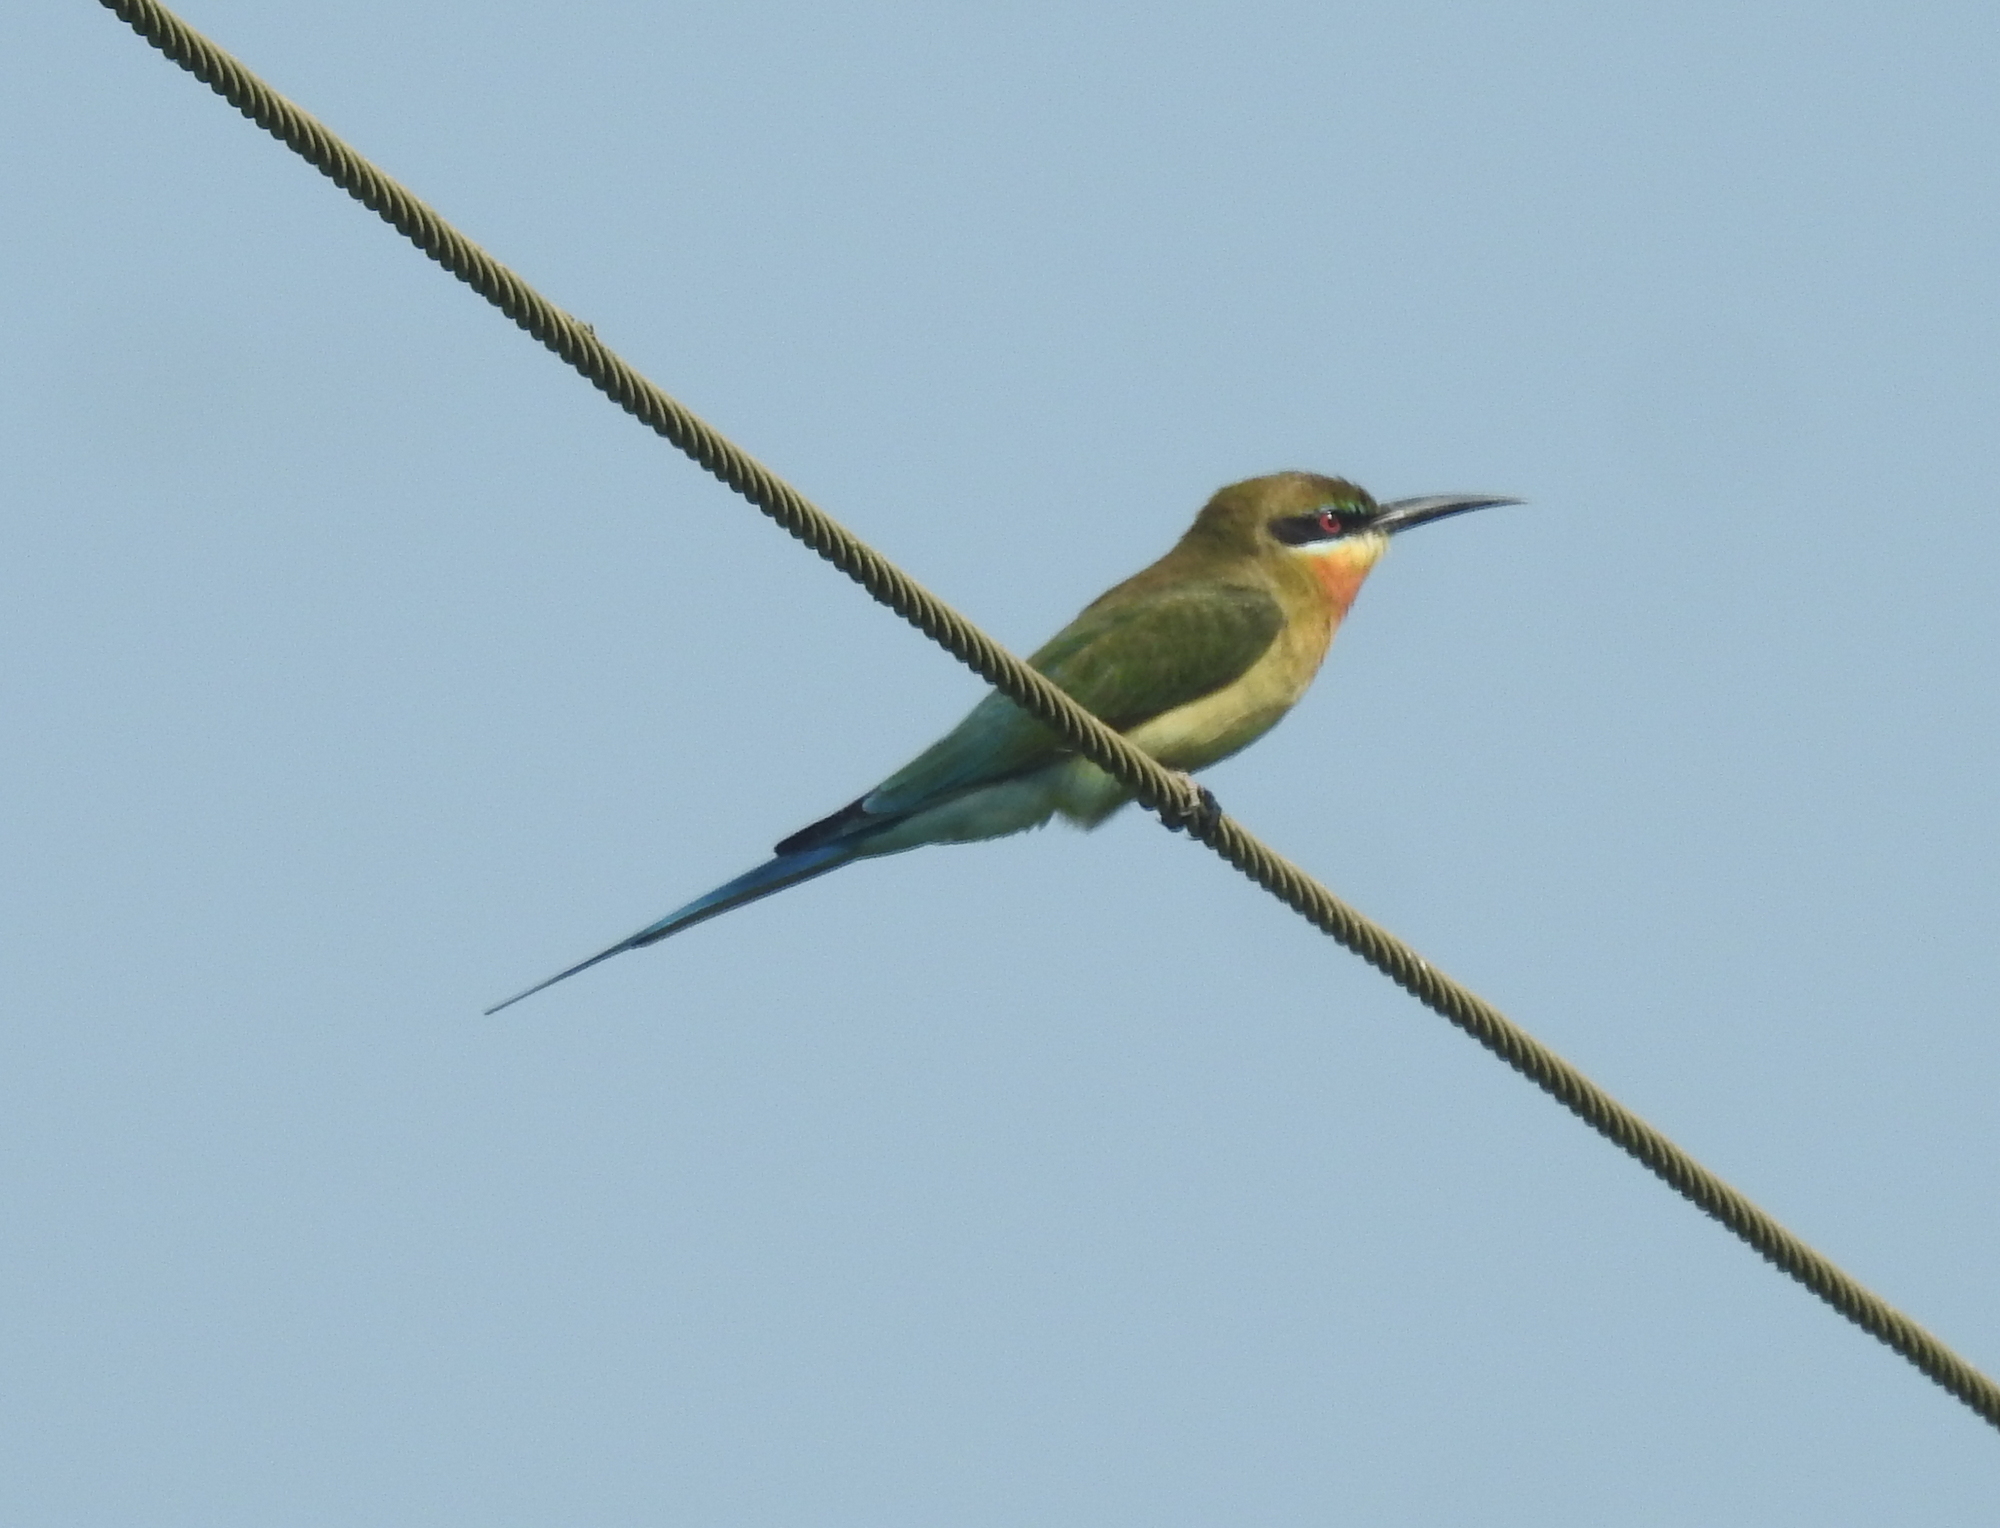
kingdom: Animalia
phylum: Chordata
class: Aves
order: Coraciiformes
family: Meropidae
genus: Merops
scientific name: Merops philippinus
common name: Blue-tailed bee-eater
